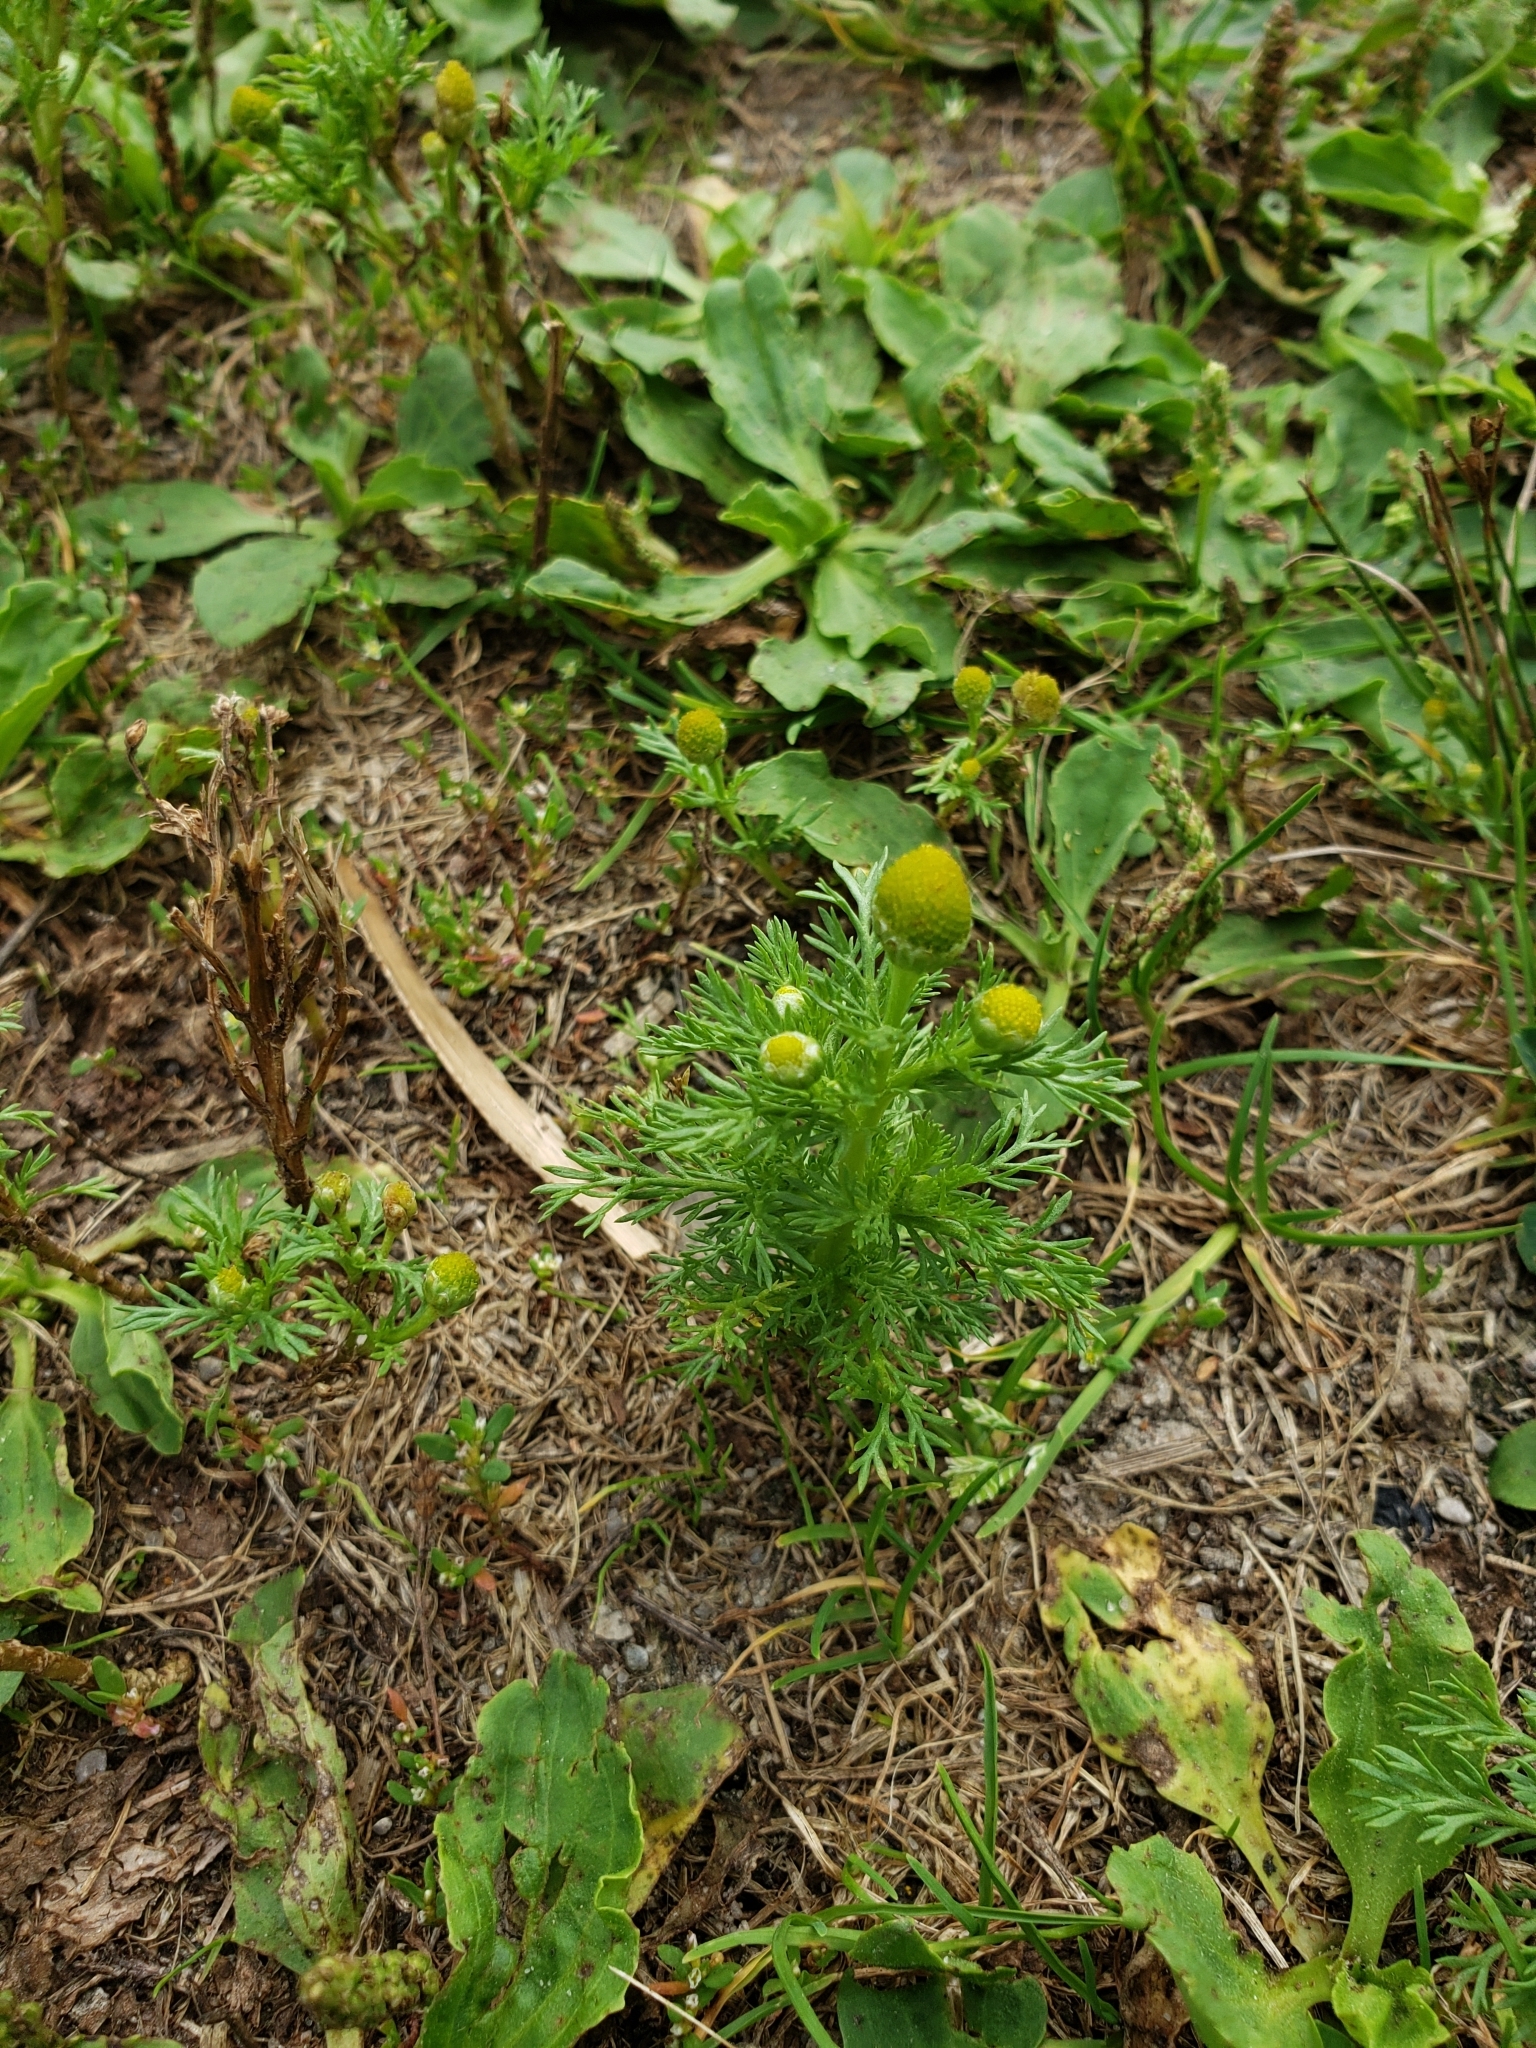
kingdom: Plantae
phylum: Tracheophyta
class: Magnoliopsida
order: Asterales
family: Asteraceae
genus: Matricaria
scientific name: Matricaria discoidea
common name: Disc mayweed
